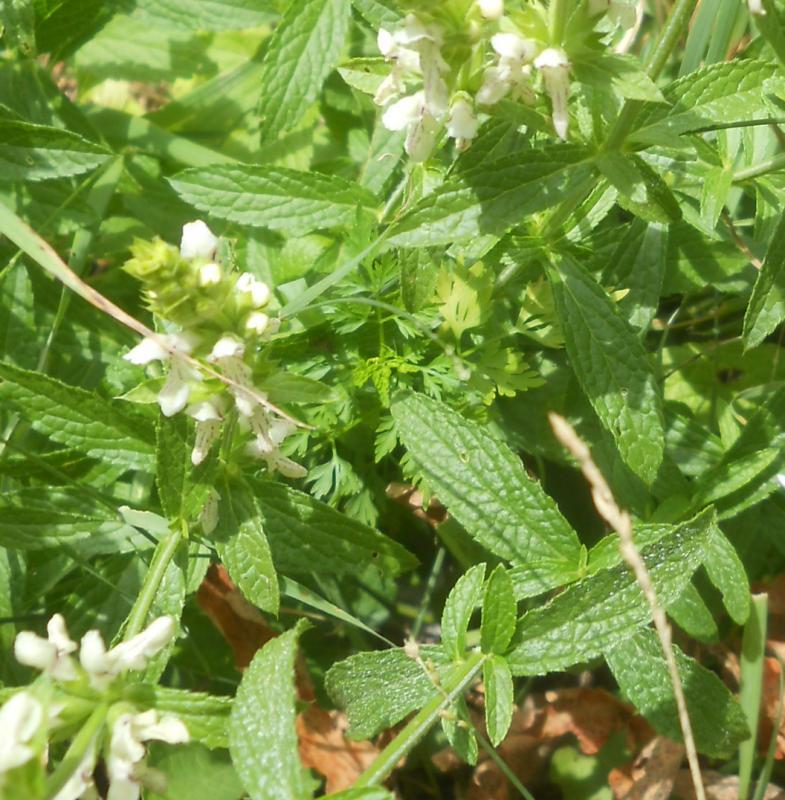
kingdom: Plantae
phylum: Tracheophyta
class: Magnoliopsida
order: Lamiales
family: Lamiaceae
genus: Stachys
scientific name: Stachys recta
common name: Perennial yellow-woundwort
